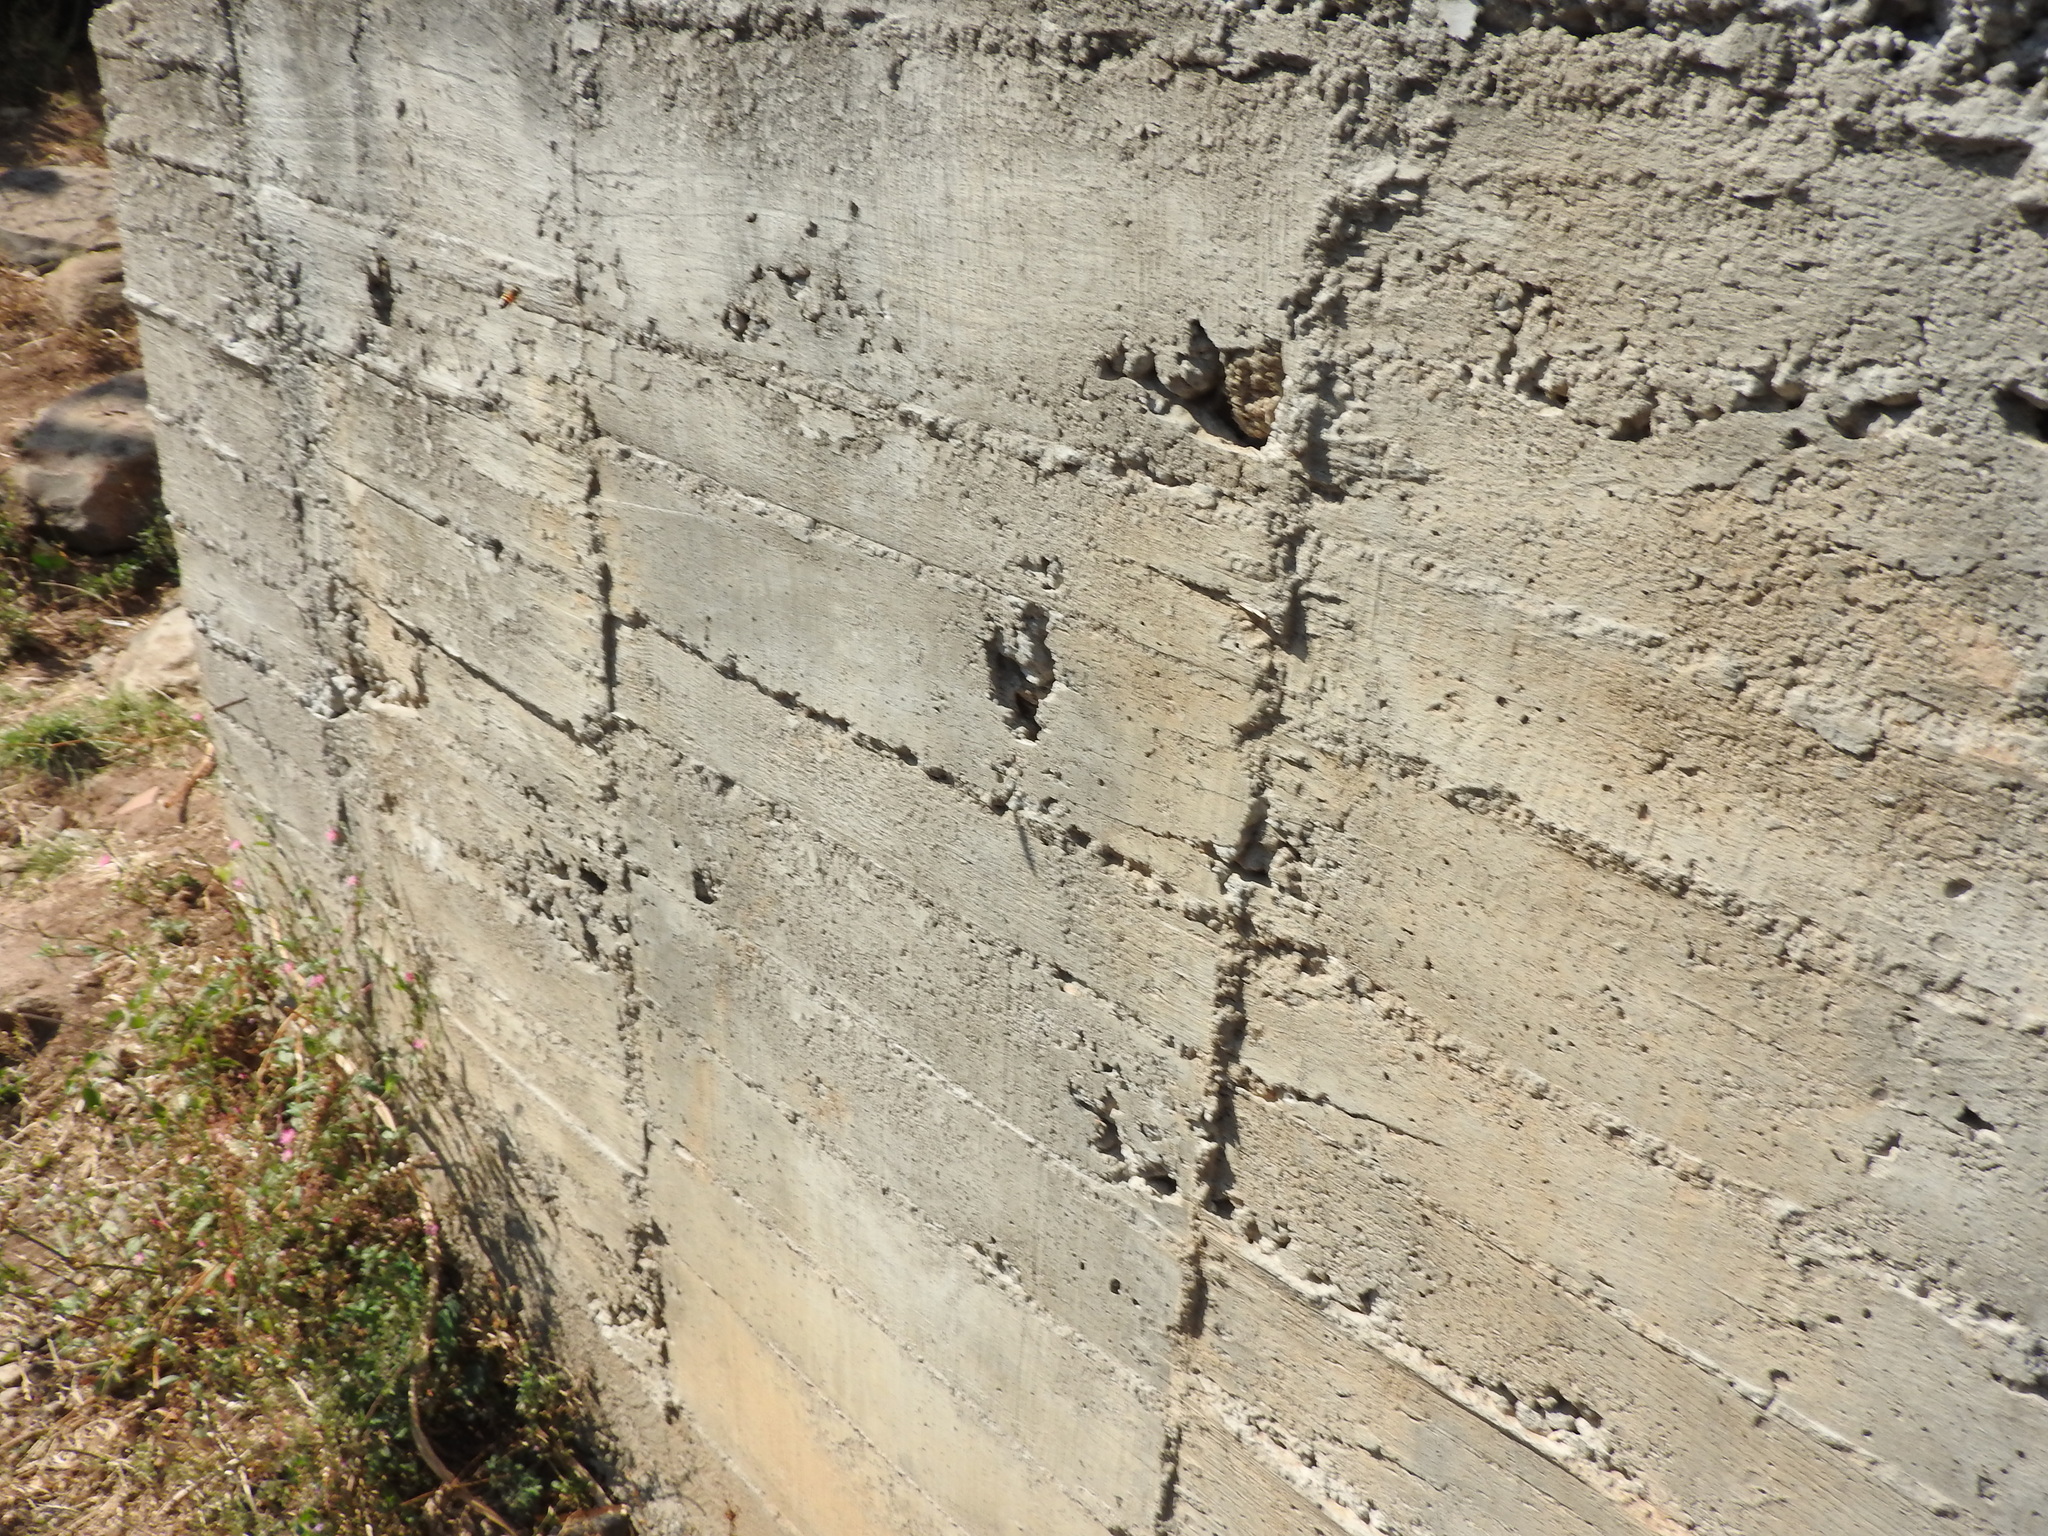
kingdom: Animalia
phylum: Arthropoda
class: Insecta
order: Hymenoptera
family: Apidae
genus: Apis
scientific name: Apis mellifera
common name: Honey bee
